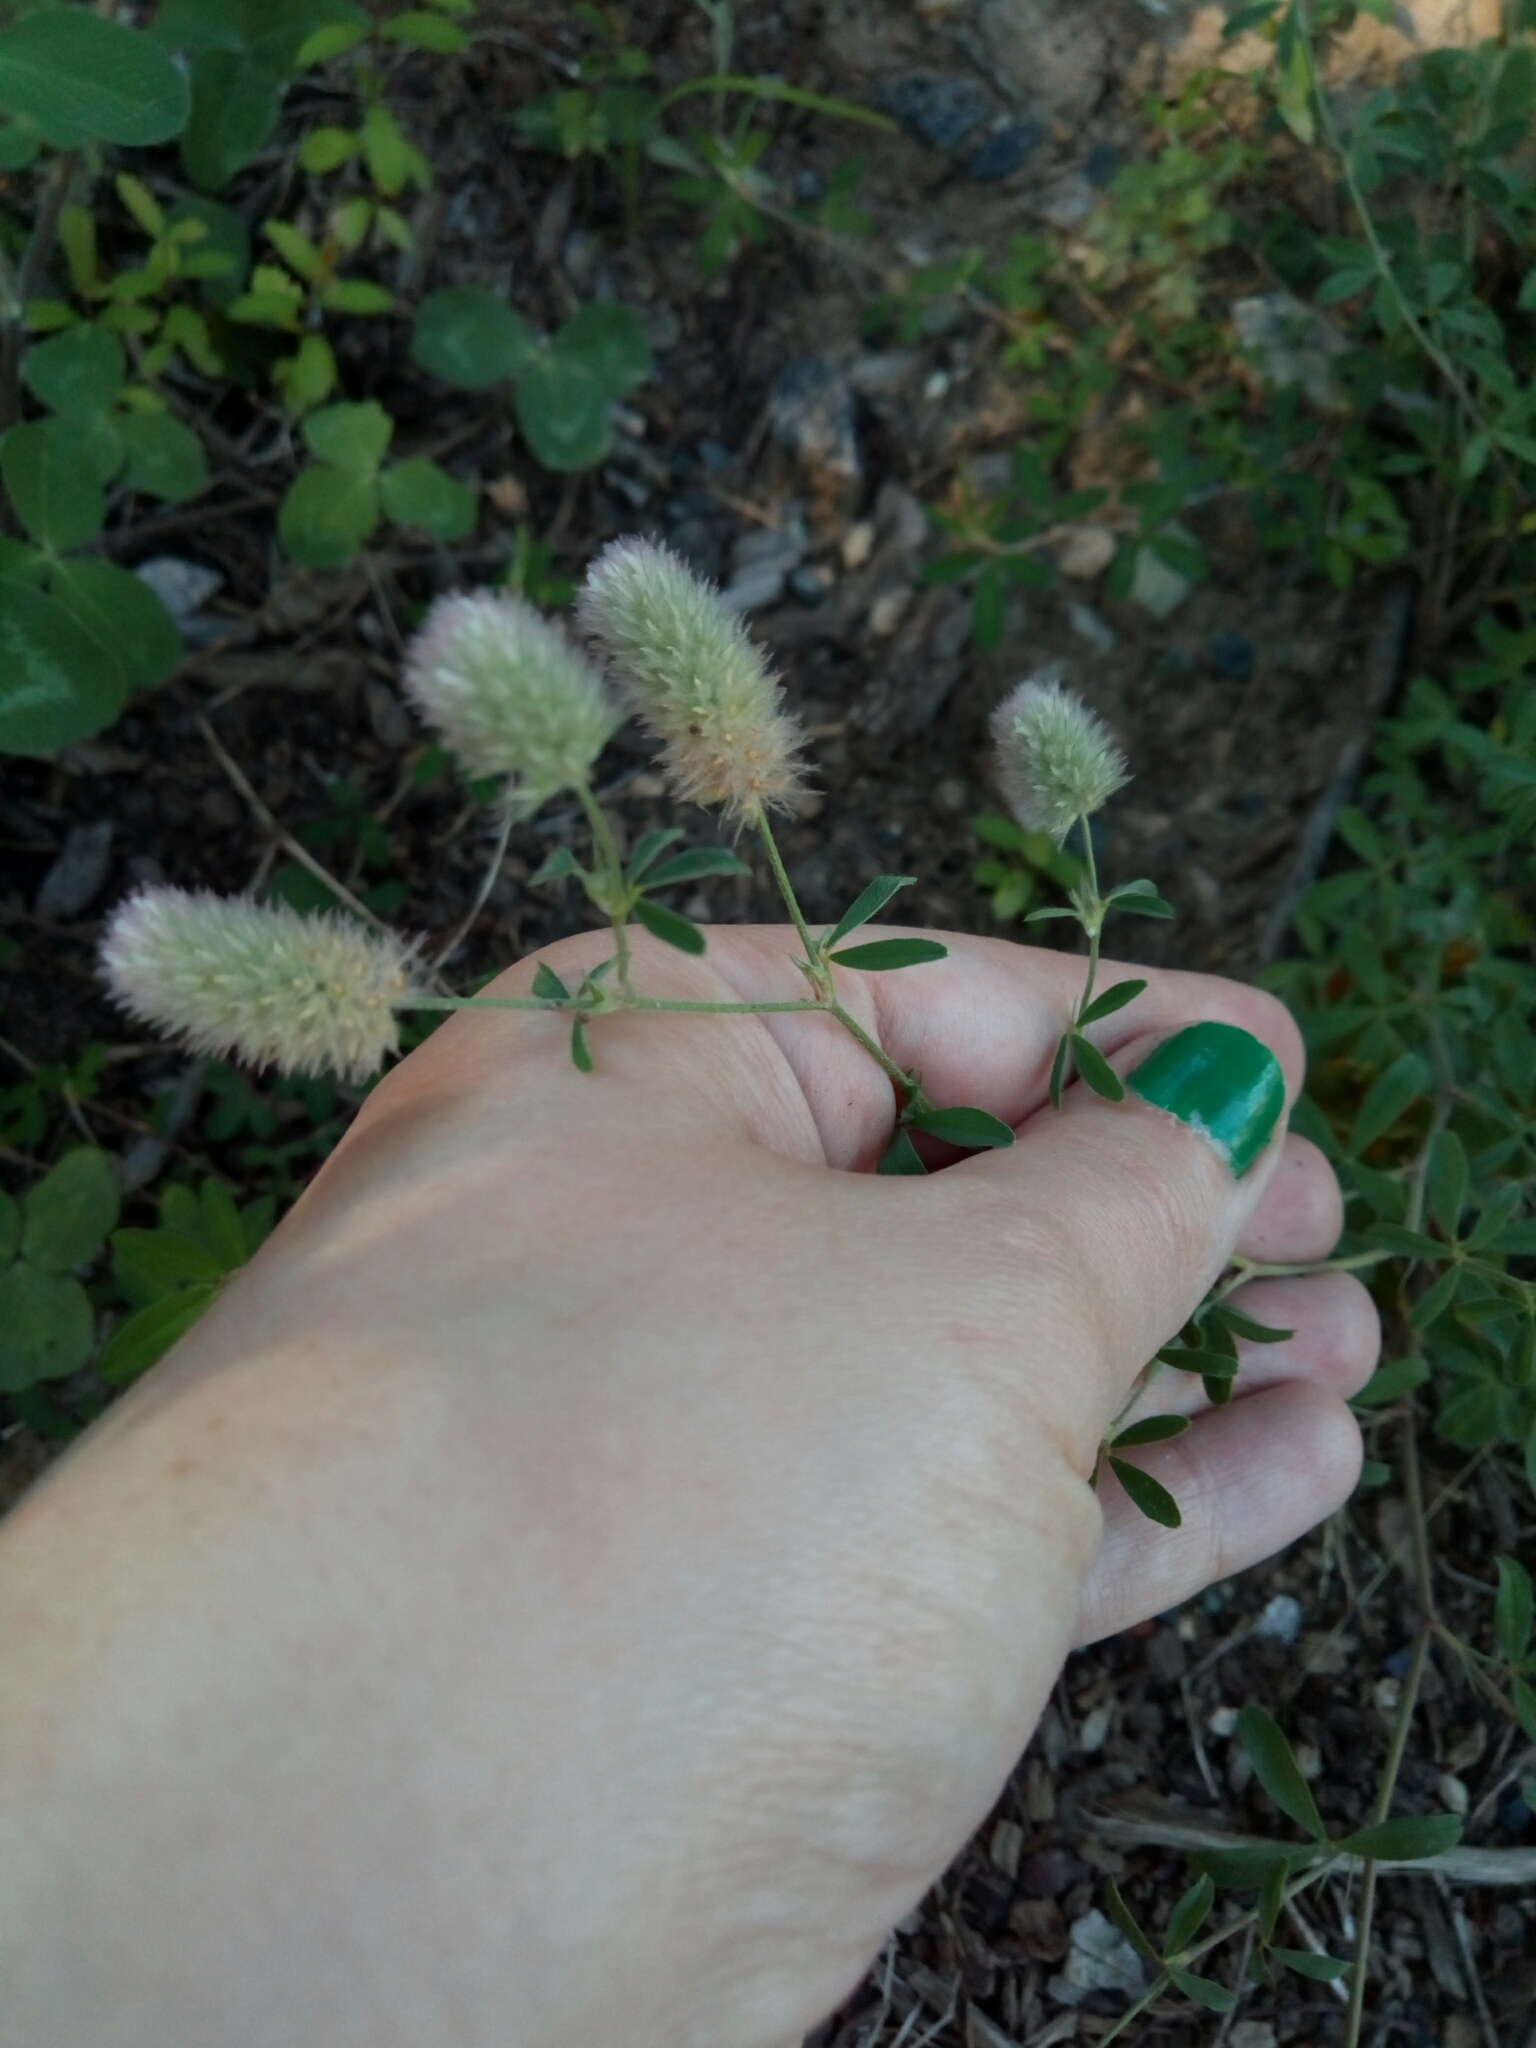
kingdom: Plantae
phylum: Tracheophyta
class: Magnoliopsida
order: Fabales
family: Fabaceae
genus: Trifolium
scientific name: Trifolium arvense
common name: Hare's-foot clover
